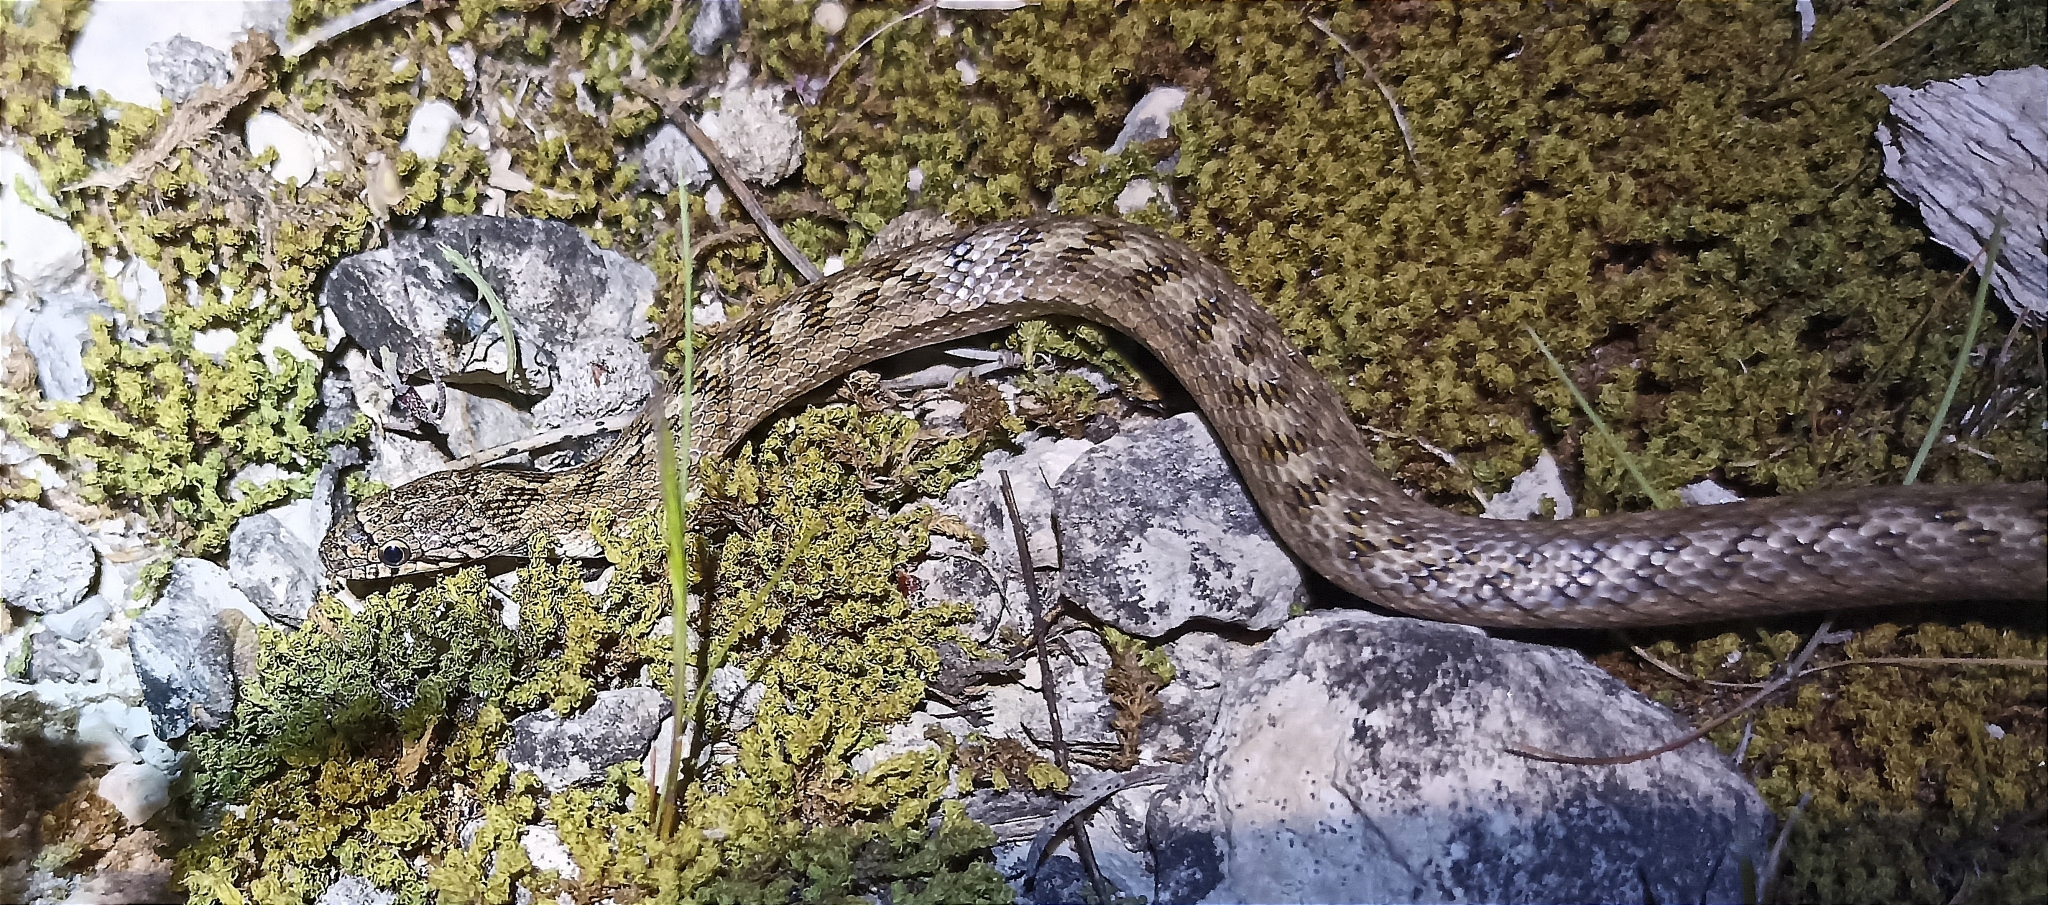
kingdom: Animalia
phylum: Chordata
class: Squamata
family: Colubridae
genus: Coronella
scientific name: Coronella girondica
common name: Southern smooth snake
